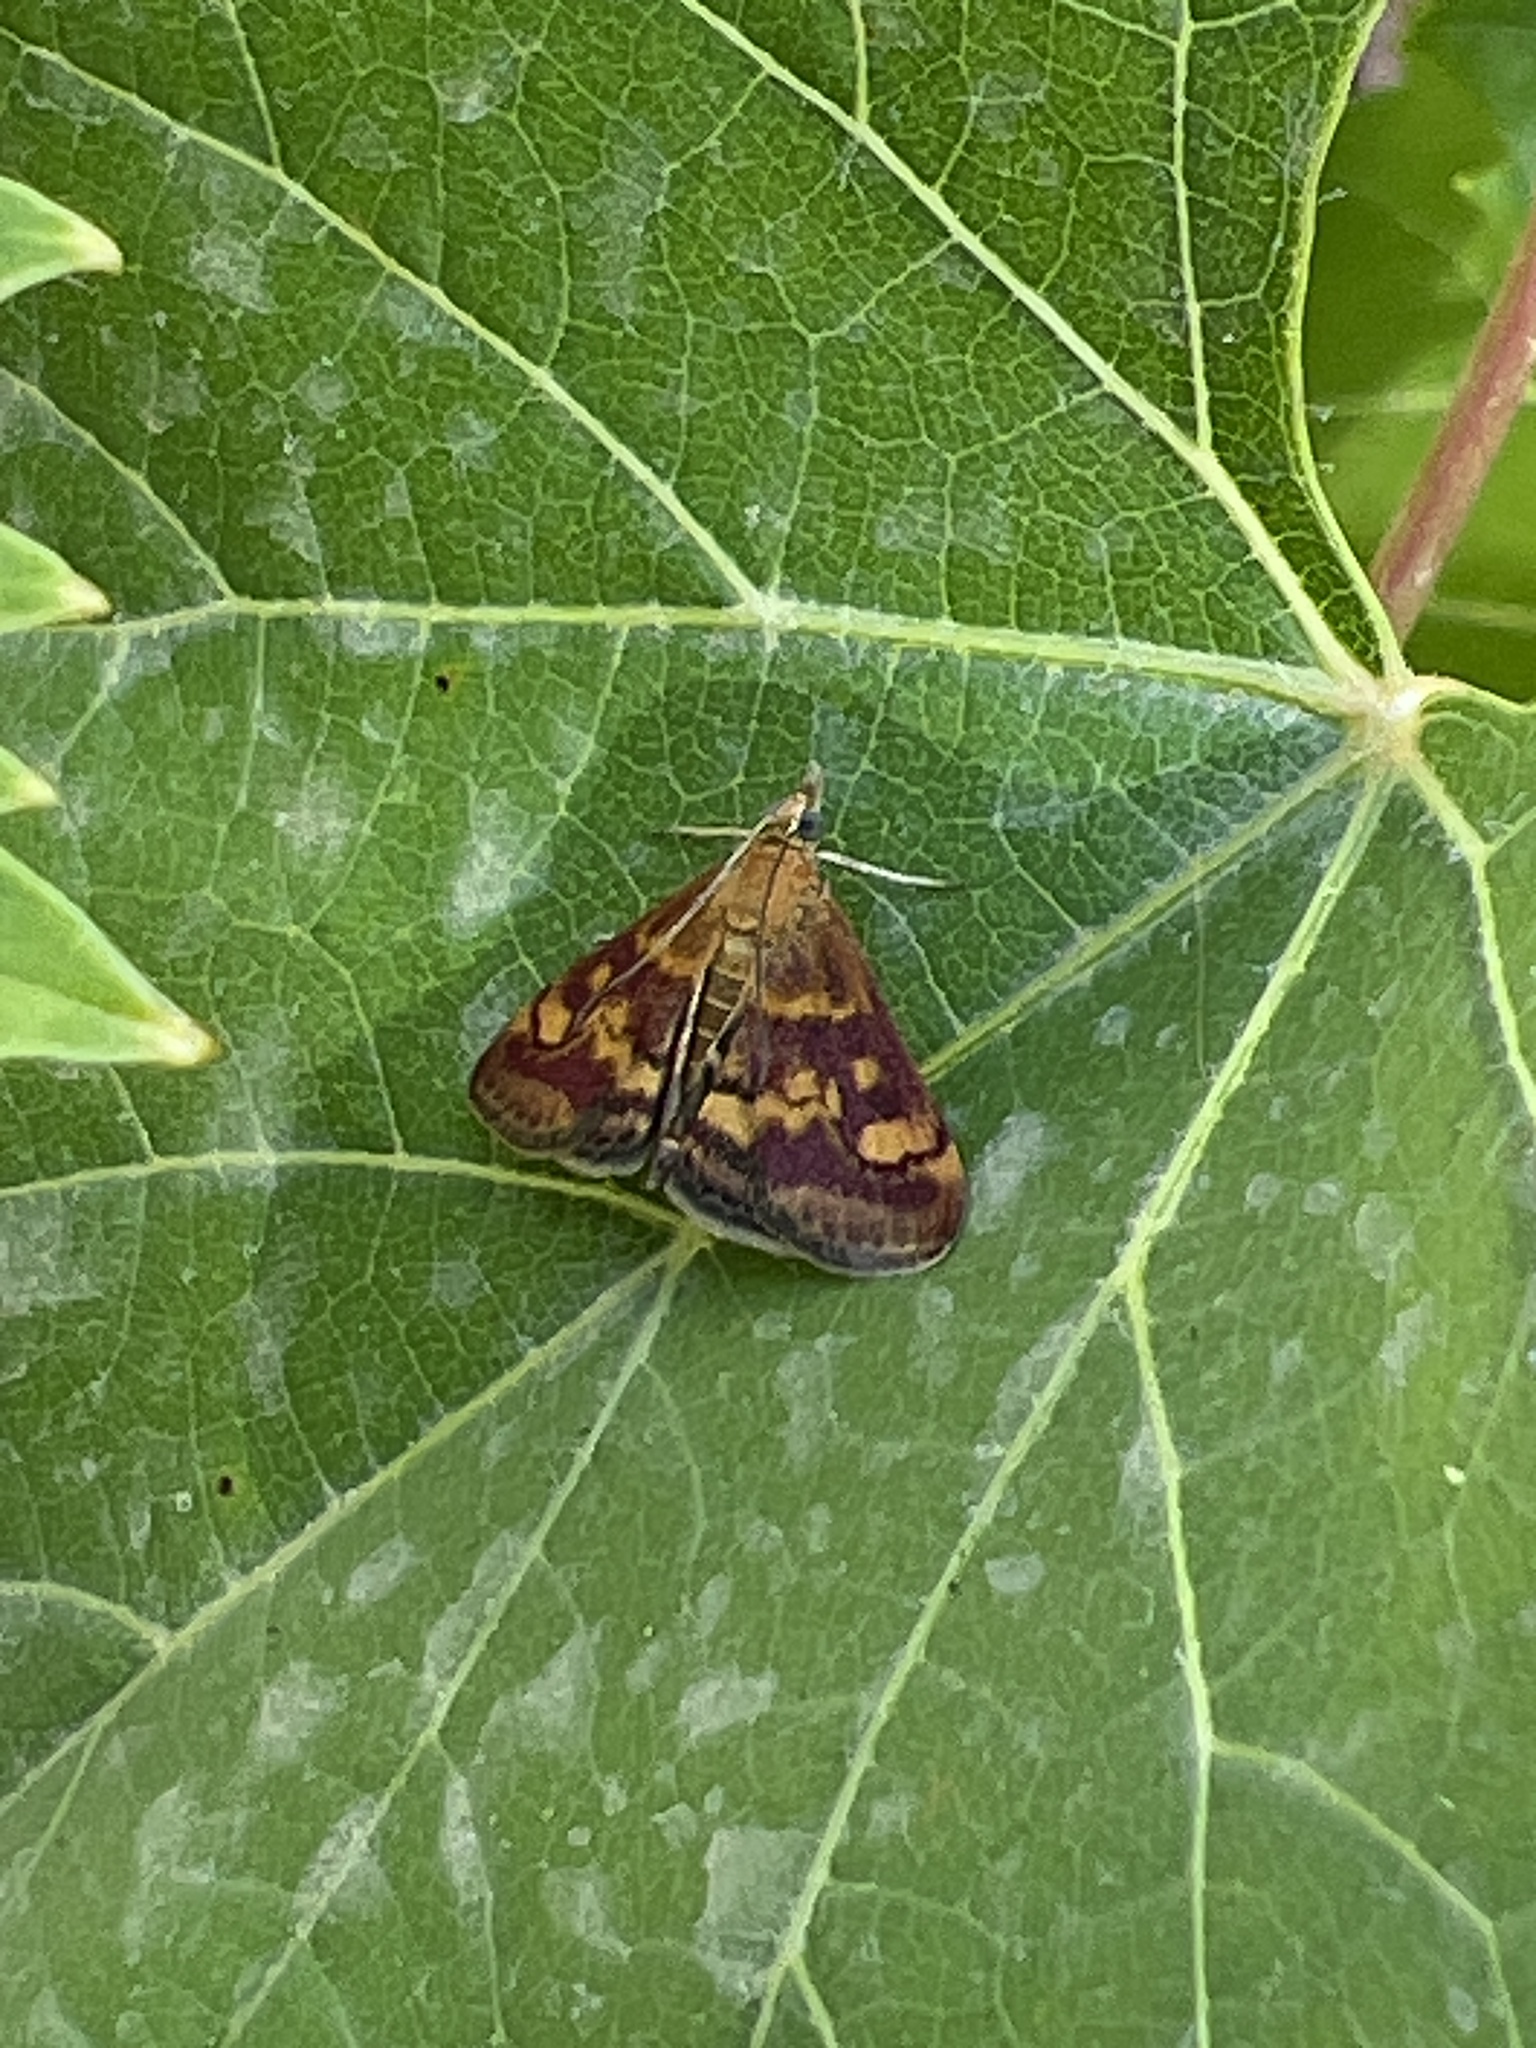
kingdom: Animalia
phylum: Arthropoda
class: Insecta
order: Lepidoptera
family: Crambidae
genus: Pyrausta
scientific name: Pyrausta aurata
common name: Small purple & gold
